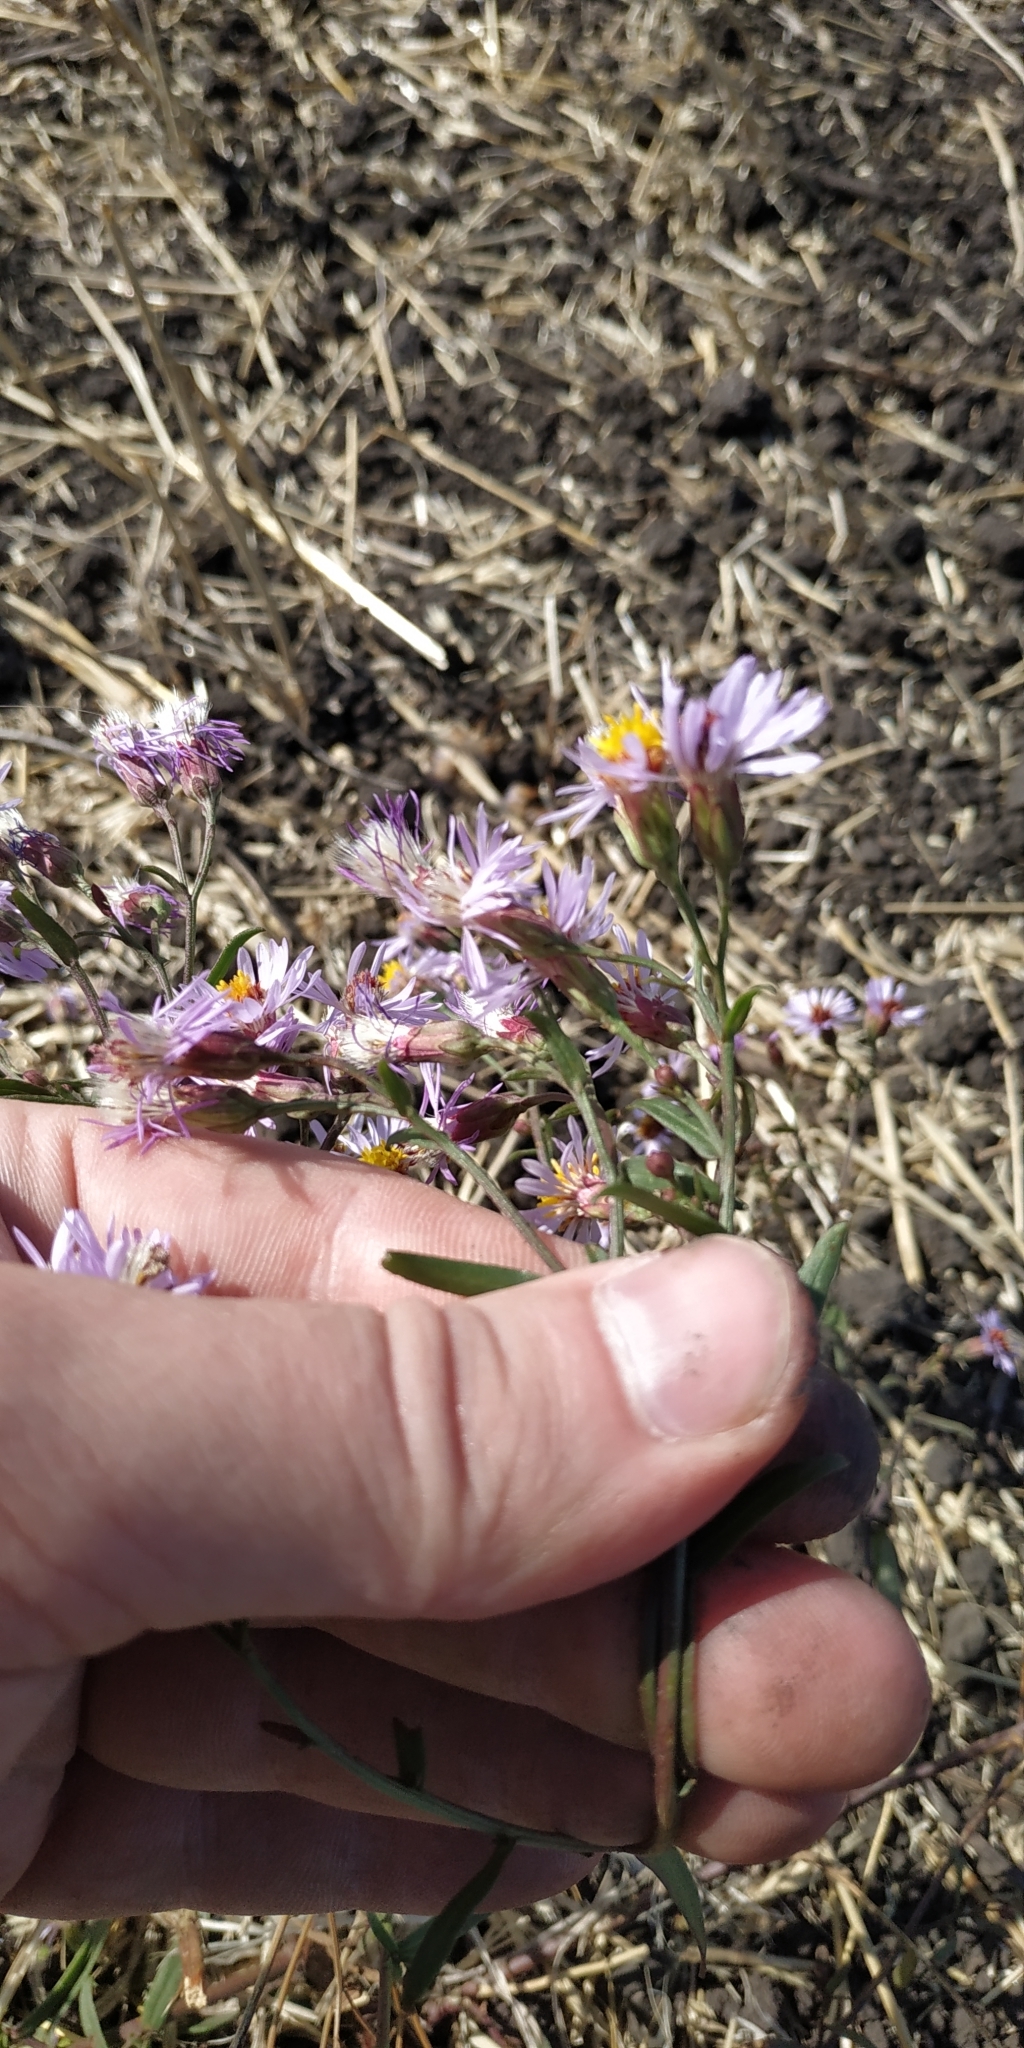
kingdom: Plantae
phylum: Tracheophyta
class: Magnoliopsida
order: Asterales
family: Asteraceae
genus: Tripolium
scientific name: Tripolium pannonicum
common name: Sea aster
